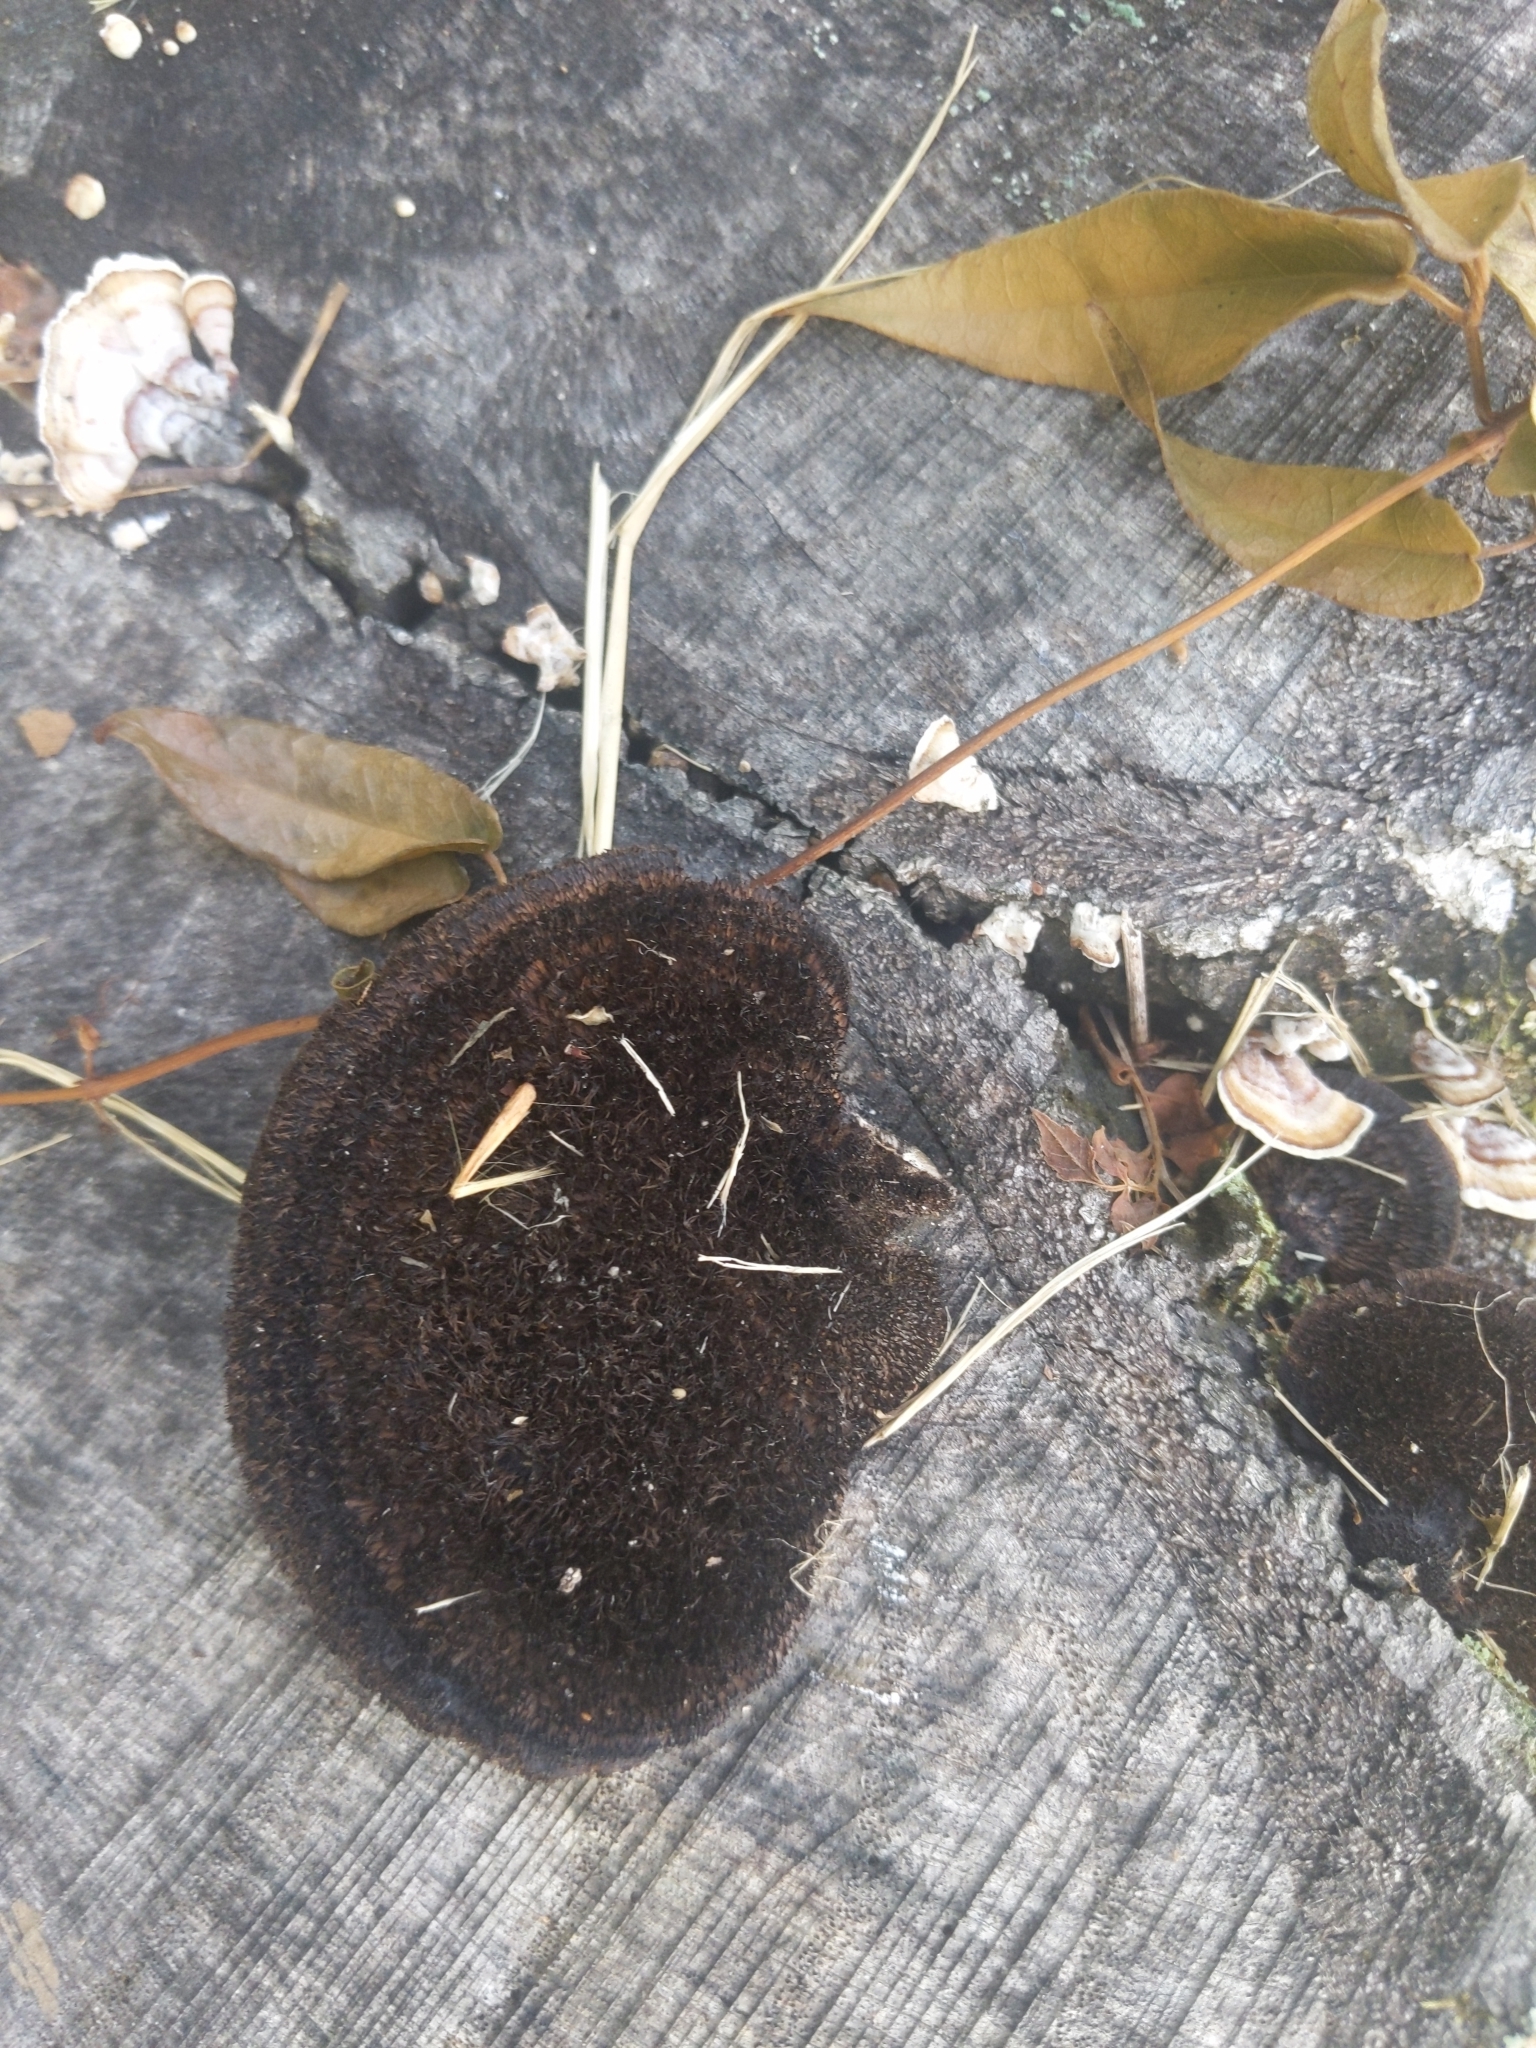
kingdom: Fungi
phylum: Basidiomycota
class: Agaricomycetes
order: Polyporales
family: Cerrenaceae
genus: Cerrena
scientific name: Cerrena hydnoides
